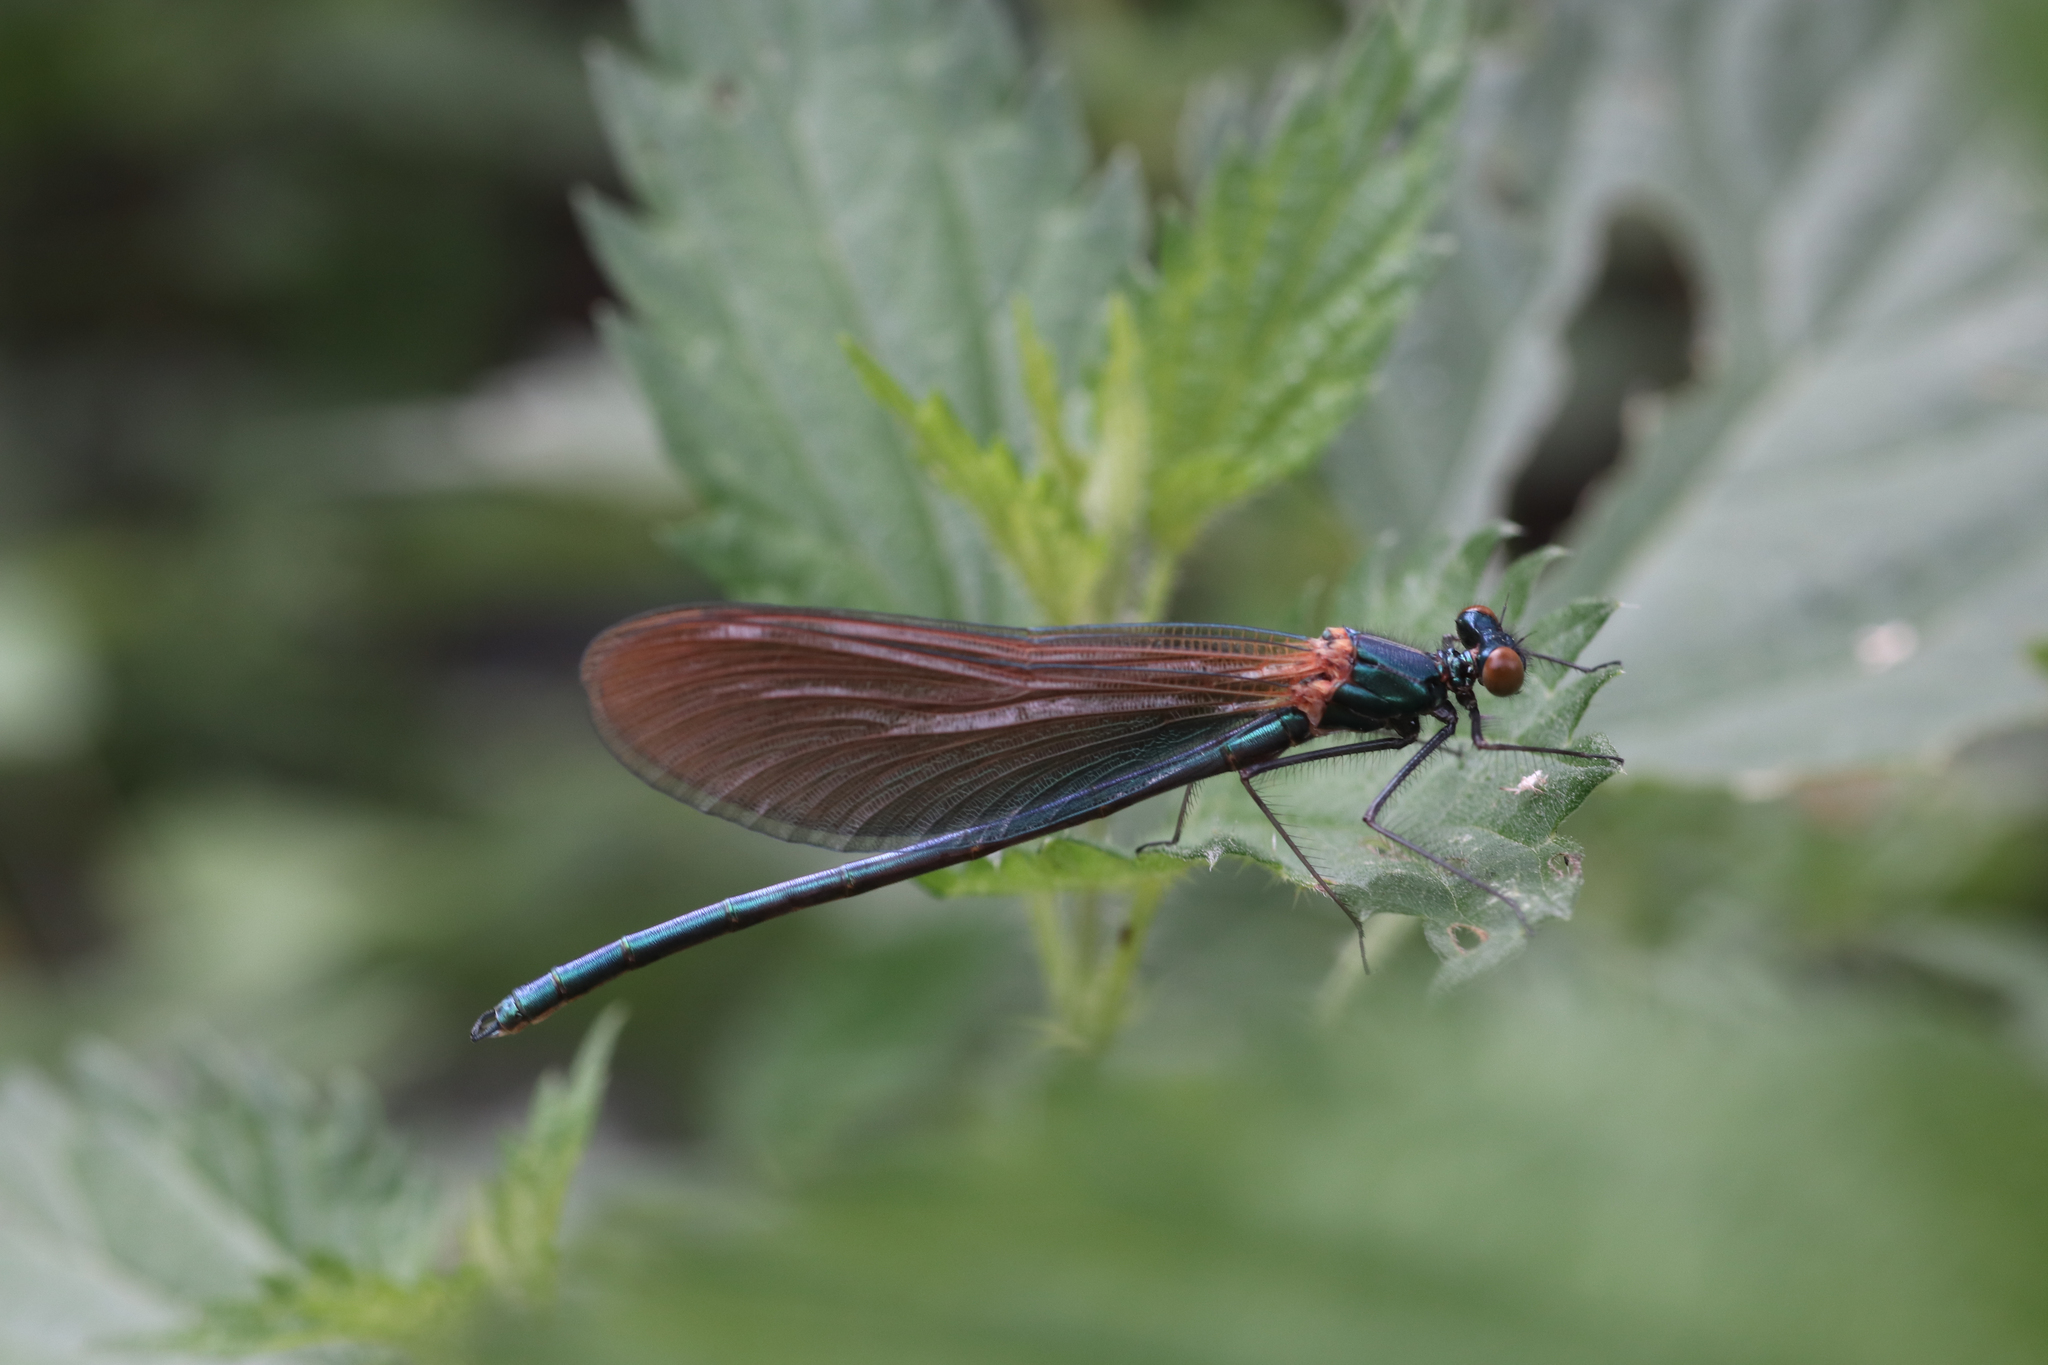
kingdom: Animalia
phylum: Arthropoda
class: Insecta
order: Odonata
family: Calopterygidae
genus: Calopteryx
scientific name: Calopteryx virgo
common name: Beautiful demoiselle
